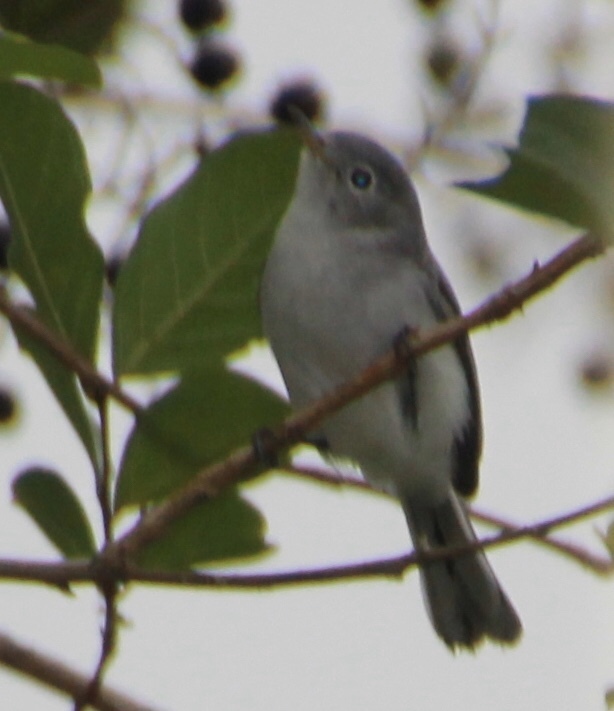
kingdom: Animalia
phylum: Chordata
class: Aves
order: Passeriformes
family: Polioptilidae
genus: Polioptila
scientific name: Polioptila caerulea
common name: Blue-gray gnatcatcher
